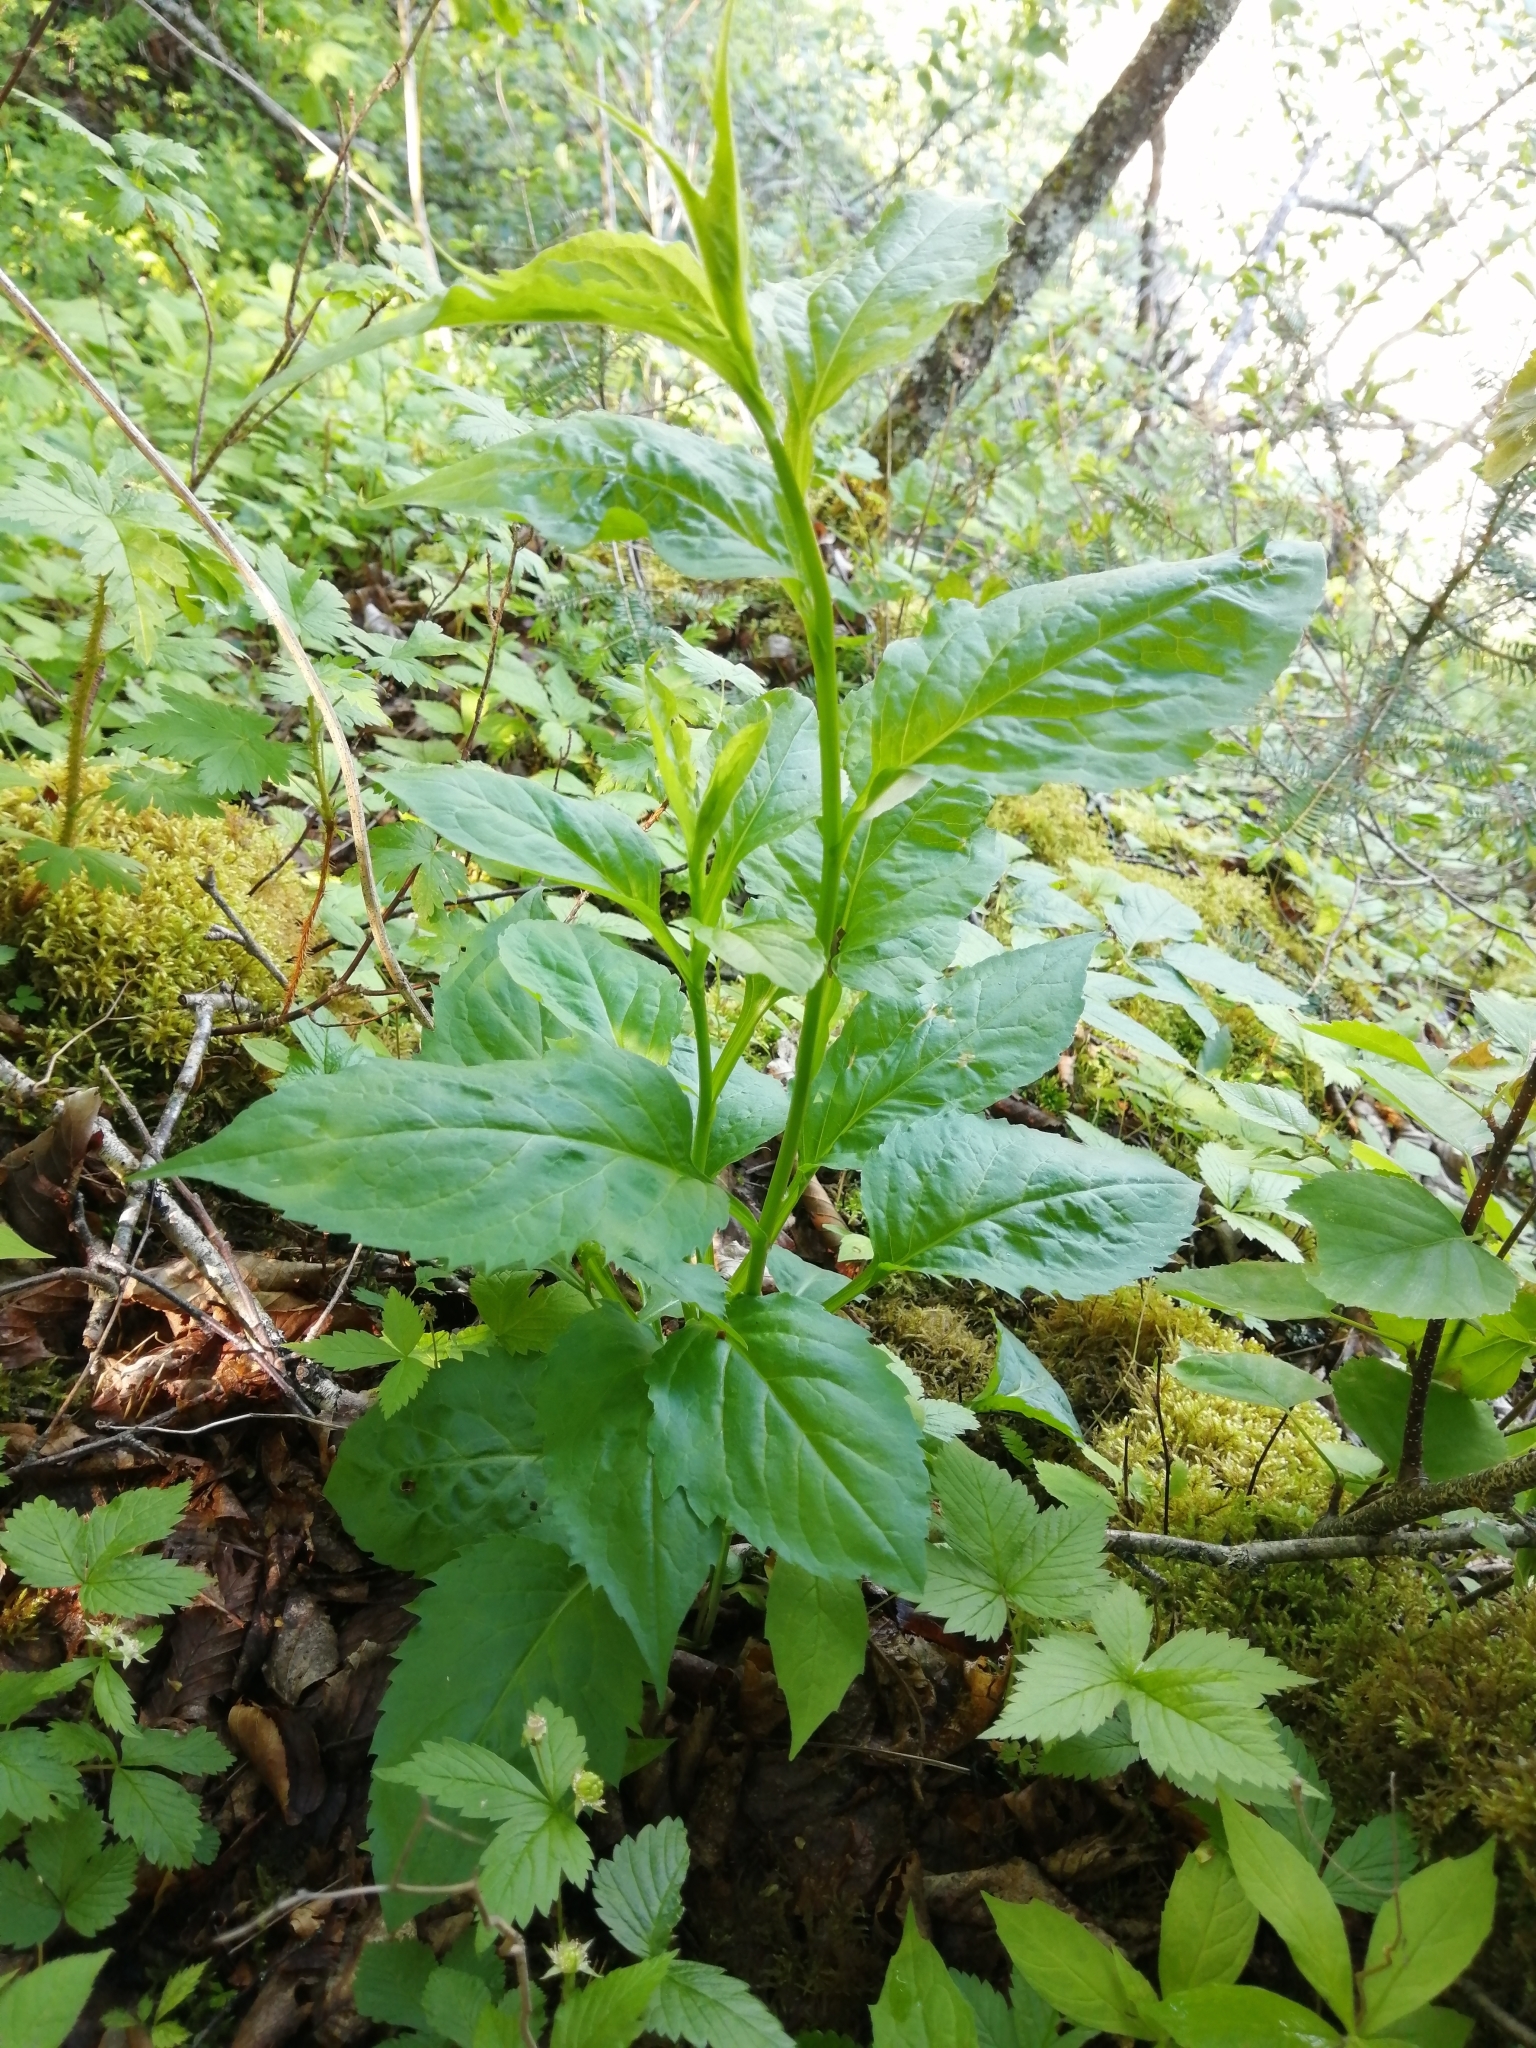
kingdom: Plantae
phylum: Tracheophyta
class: Magnoliopsida
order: Asterales
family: Asteraceae
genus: Solidago
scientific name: Solidago macrophylla
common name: Large-leaved goldenrod
